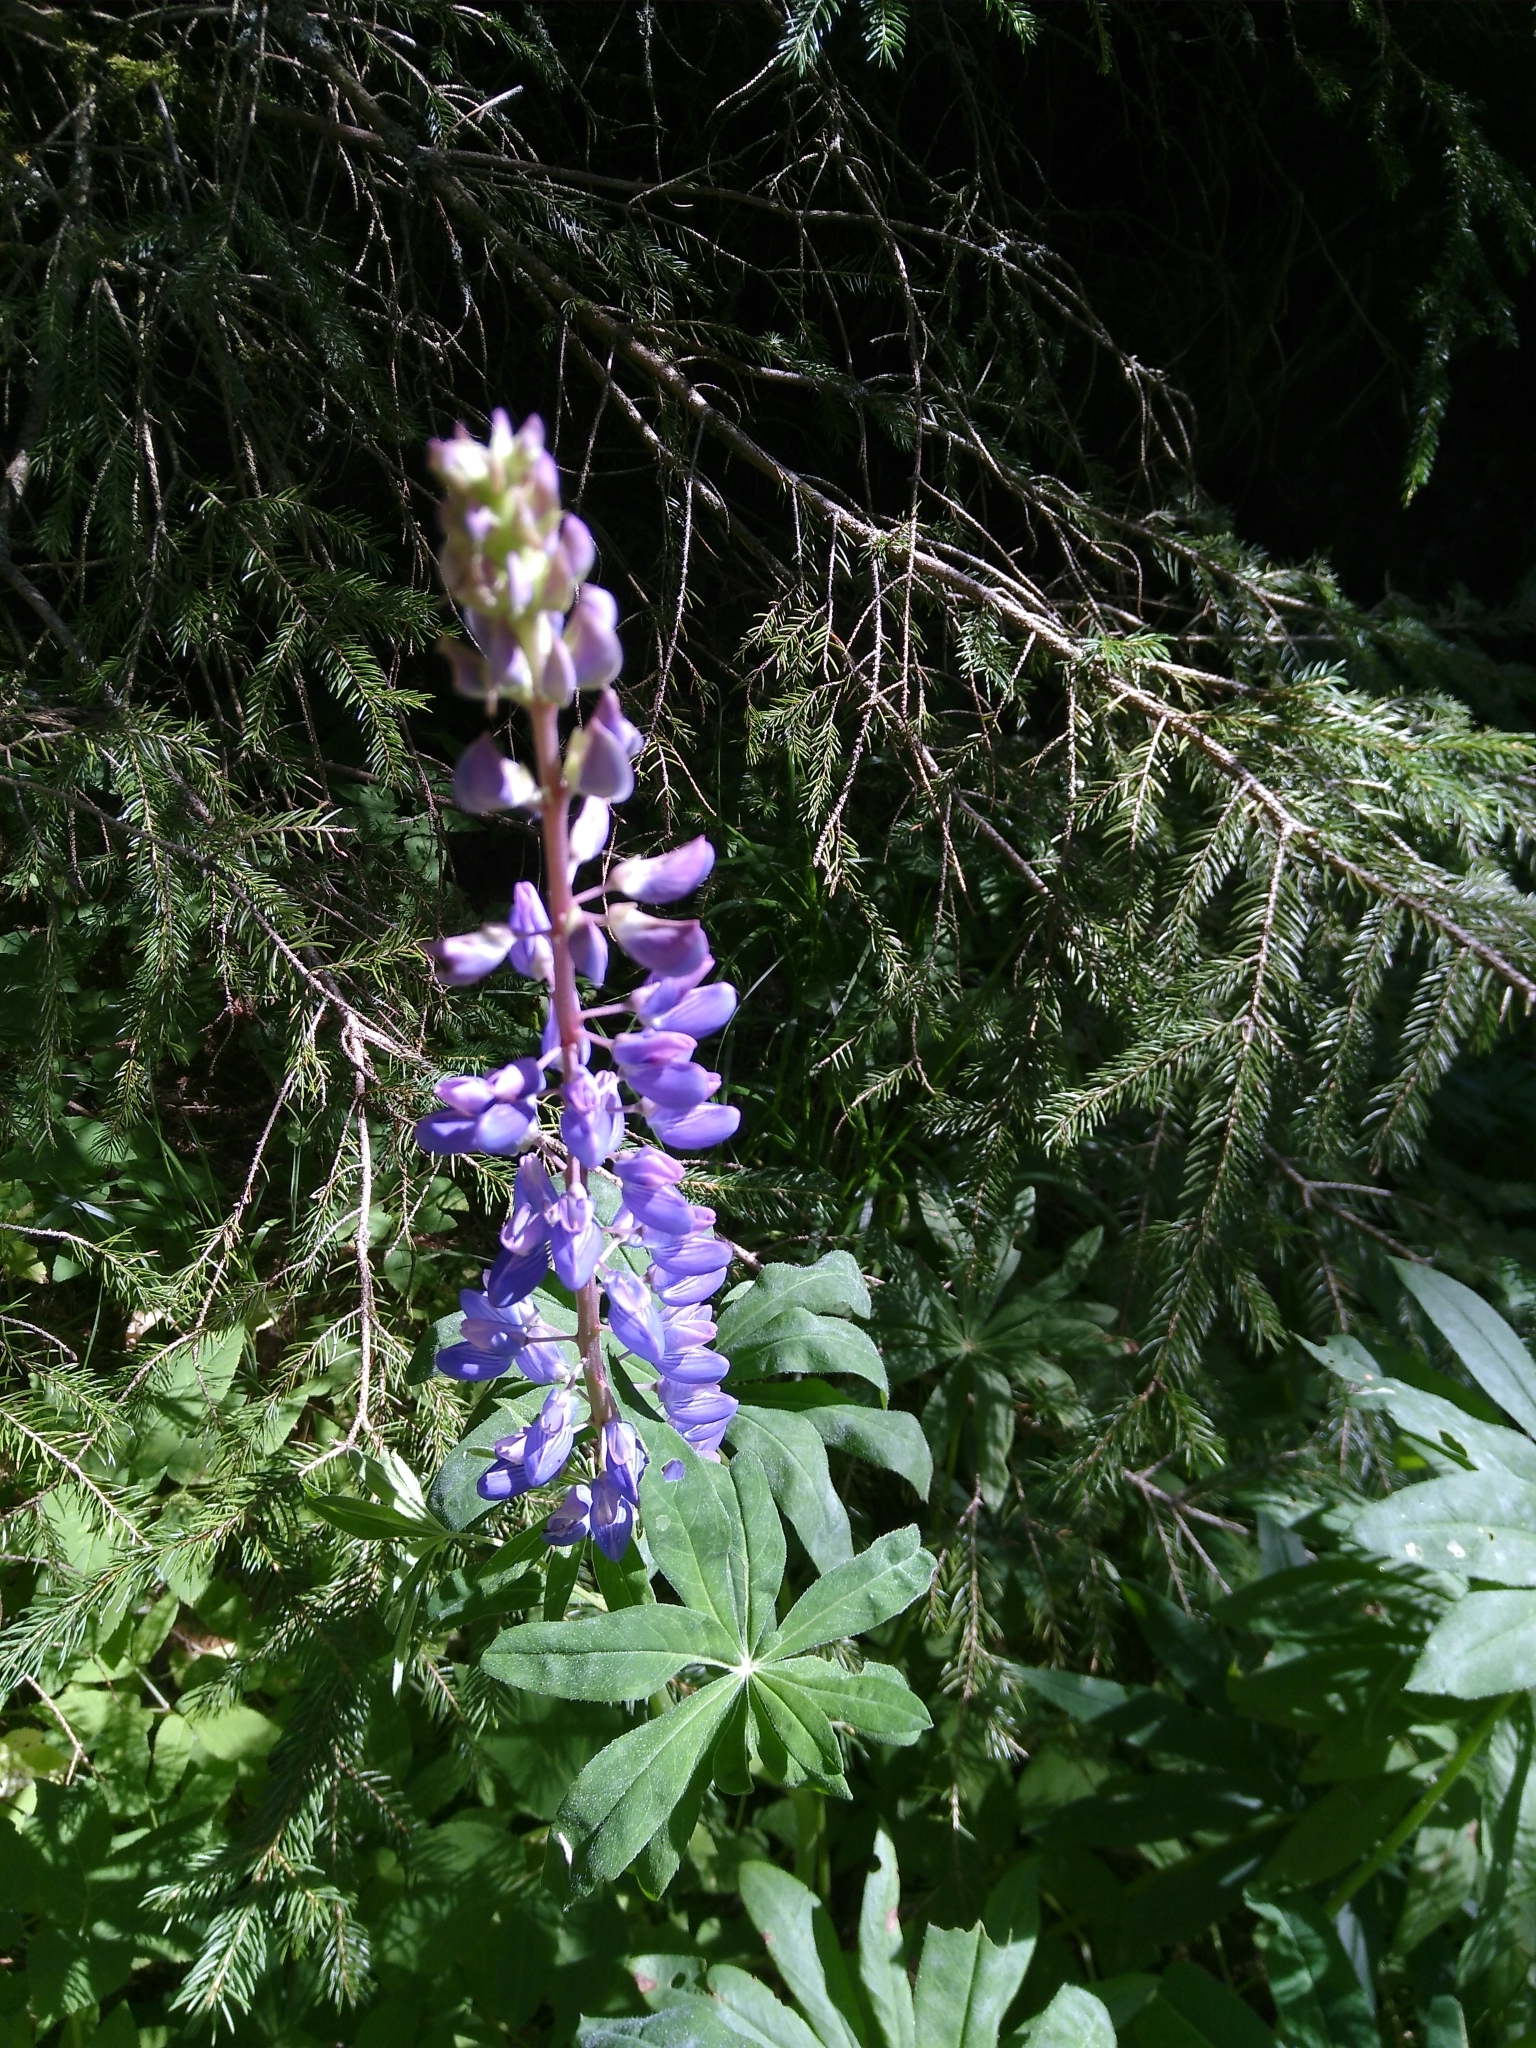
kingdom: Plantae
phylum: Tracheophyta
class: Magnoliopsida
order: Fabales
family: Fabaceae
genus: Lupinus
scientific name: Lupinus polyphyllus
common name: Garden lupin
